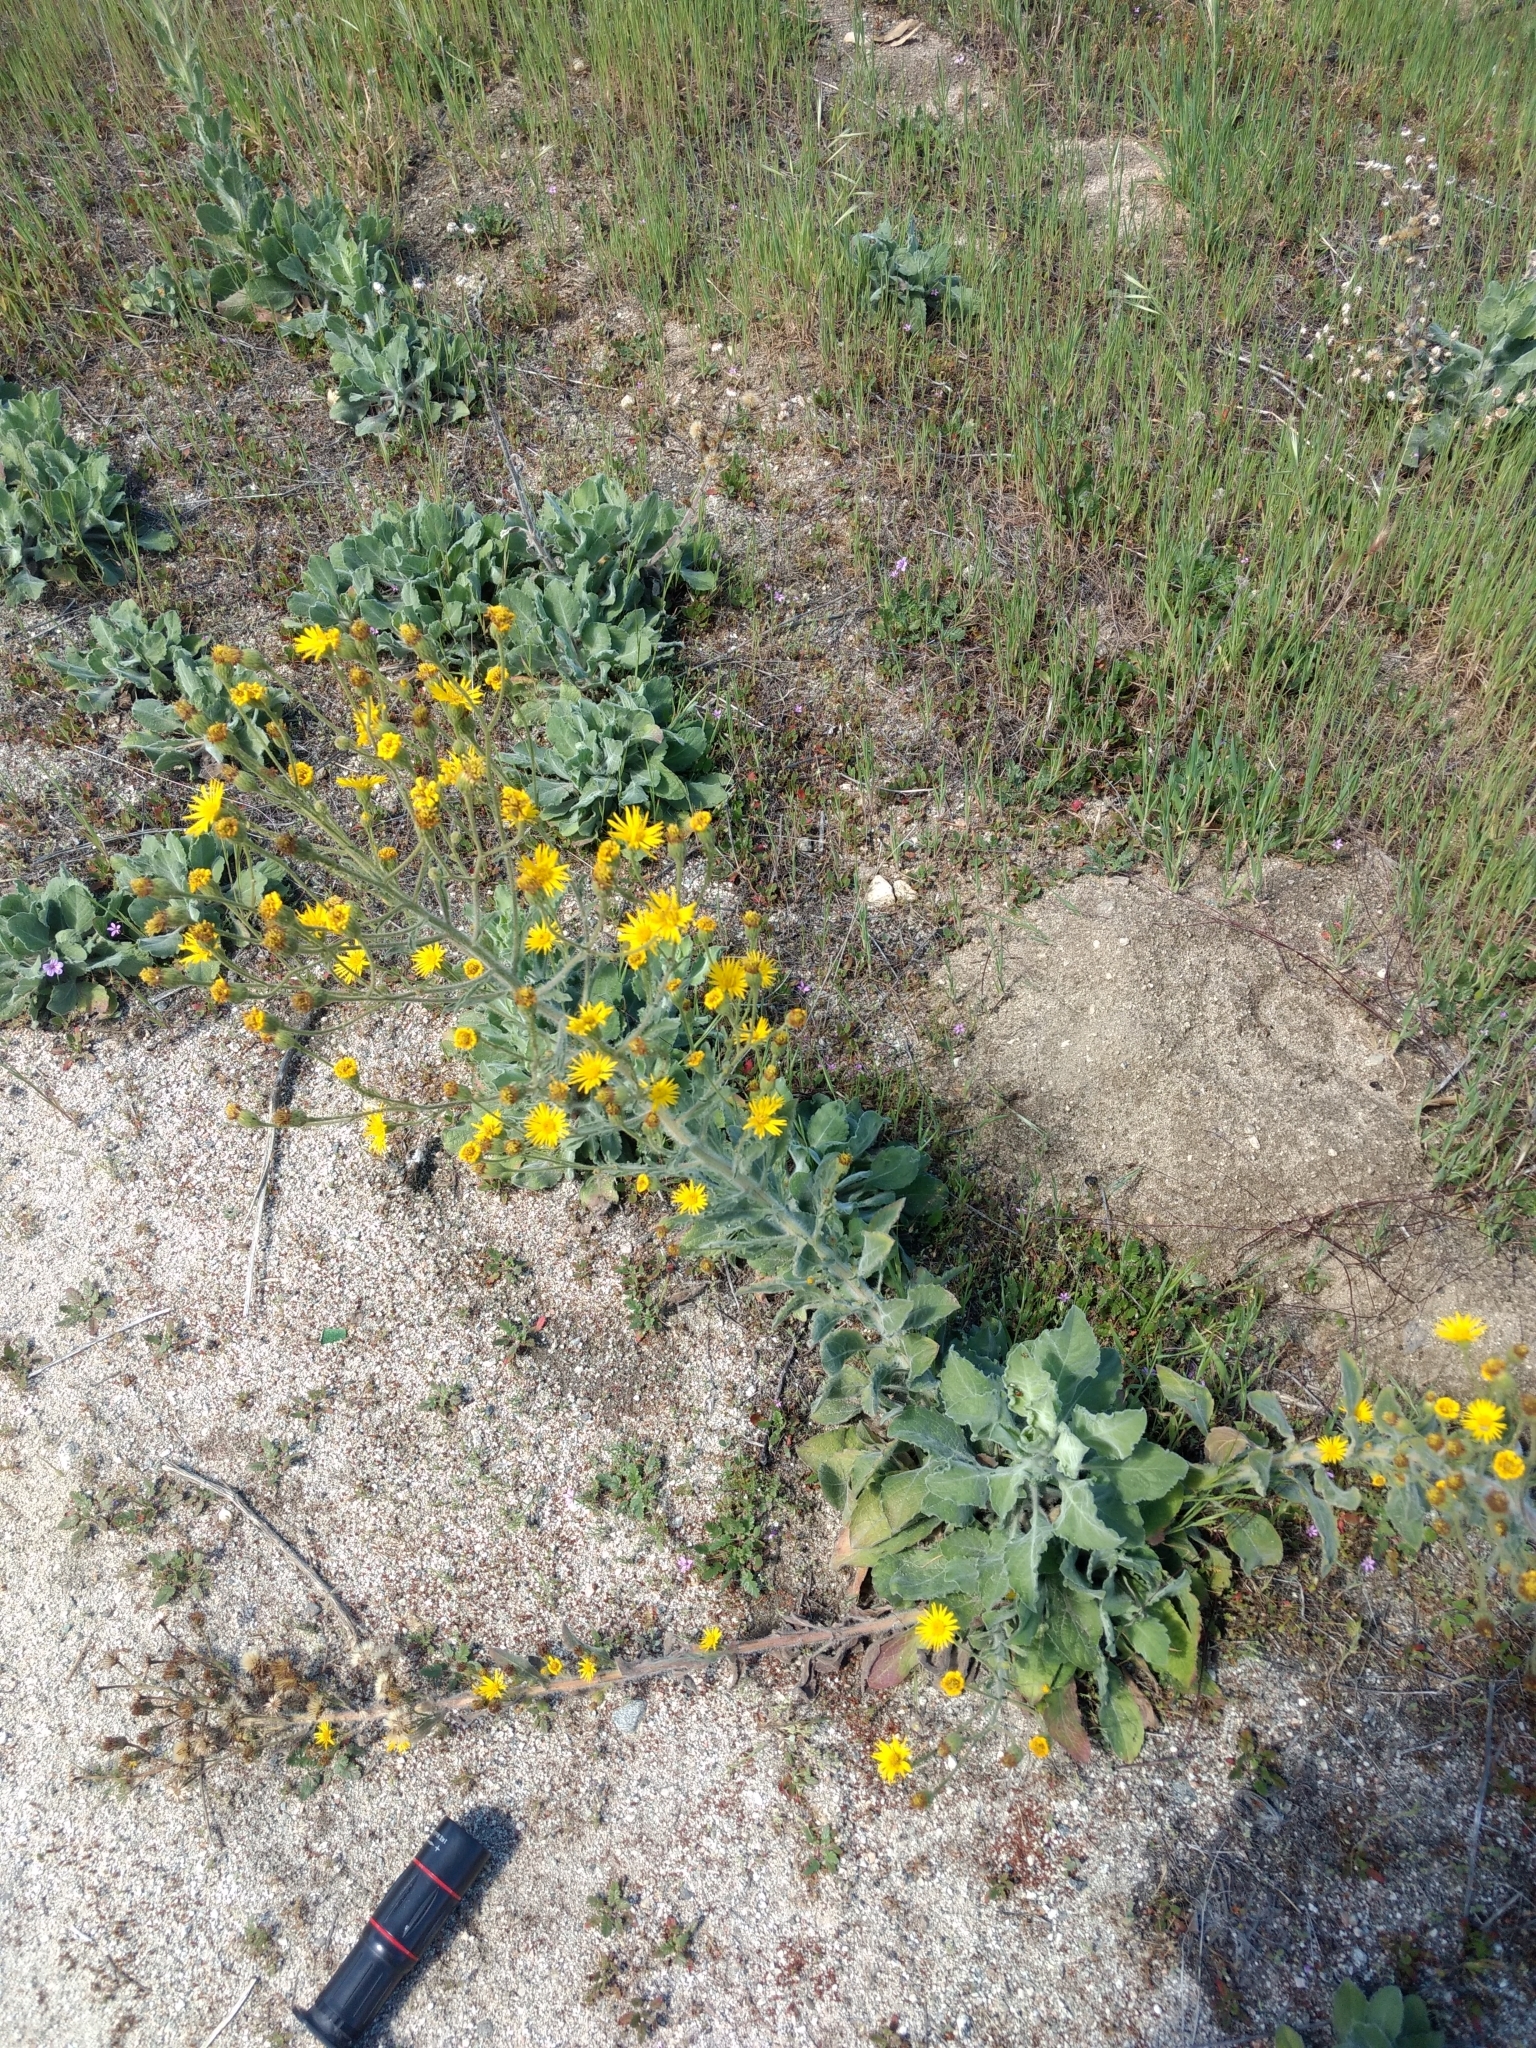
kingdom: Plantae
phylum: Tracheophyta
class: Magnoliopsida
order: Asterales
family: Asteraceae
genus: Heterotheca
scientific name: Heterotheca grandiflora
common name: Telegraphweed
